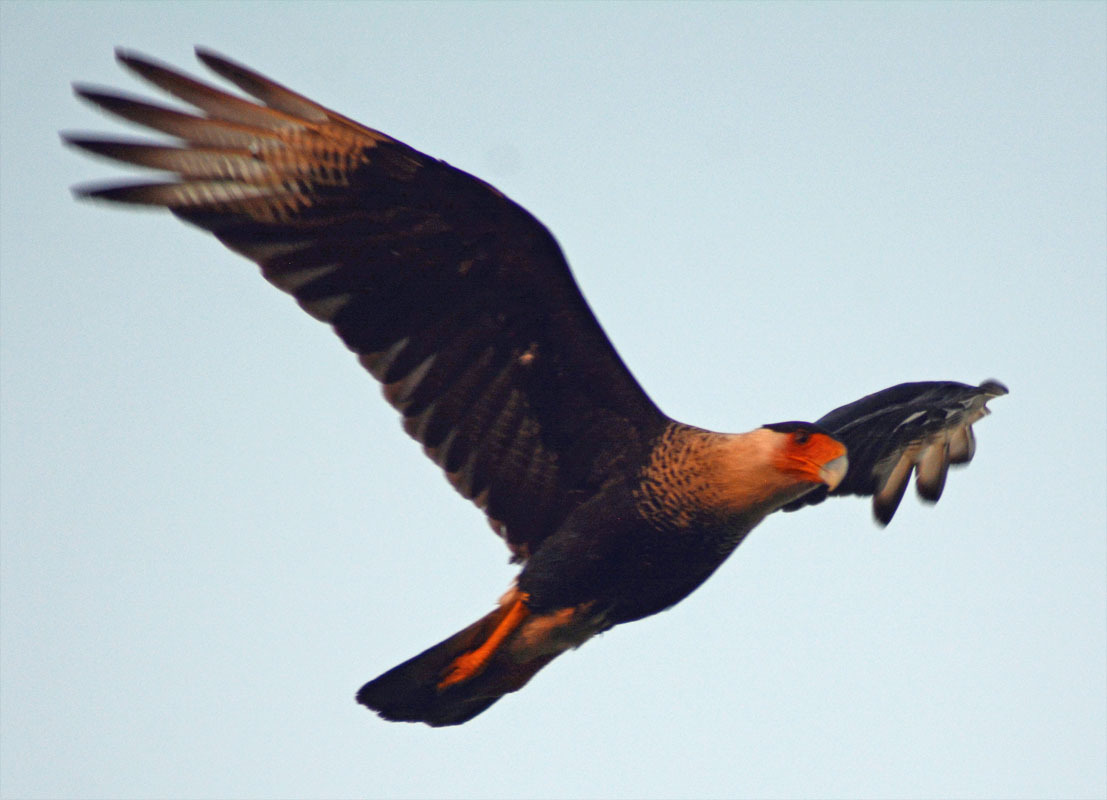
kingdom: Animalia
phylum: Chordata
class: Aves
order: Falconiformes
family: Falconidae
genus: Caracara
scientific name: Caracara plancus
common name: Southern caracara
